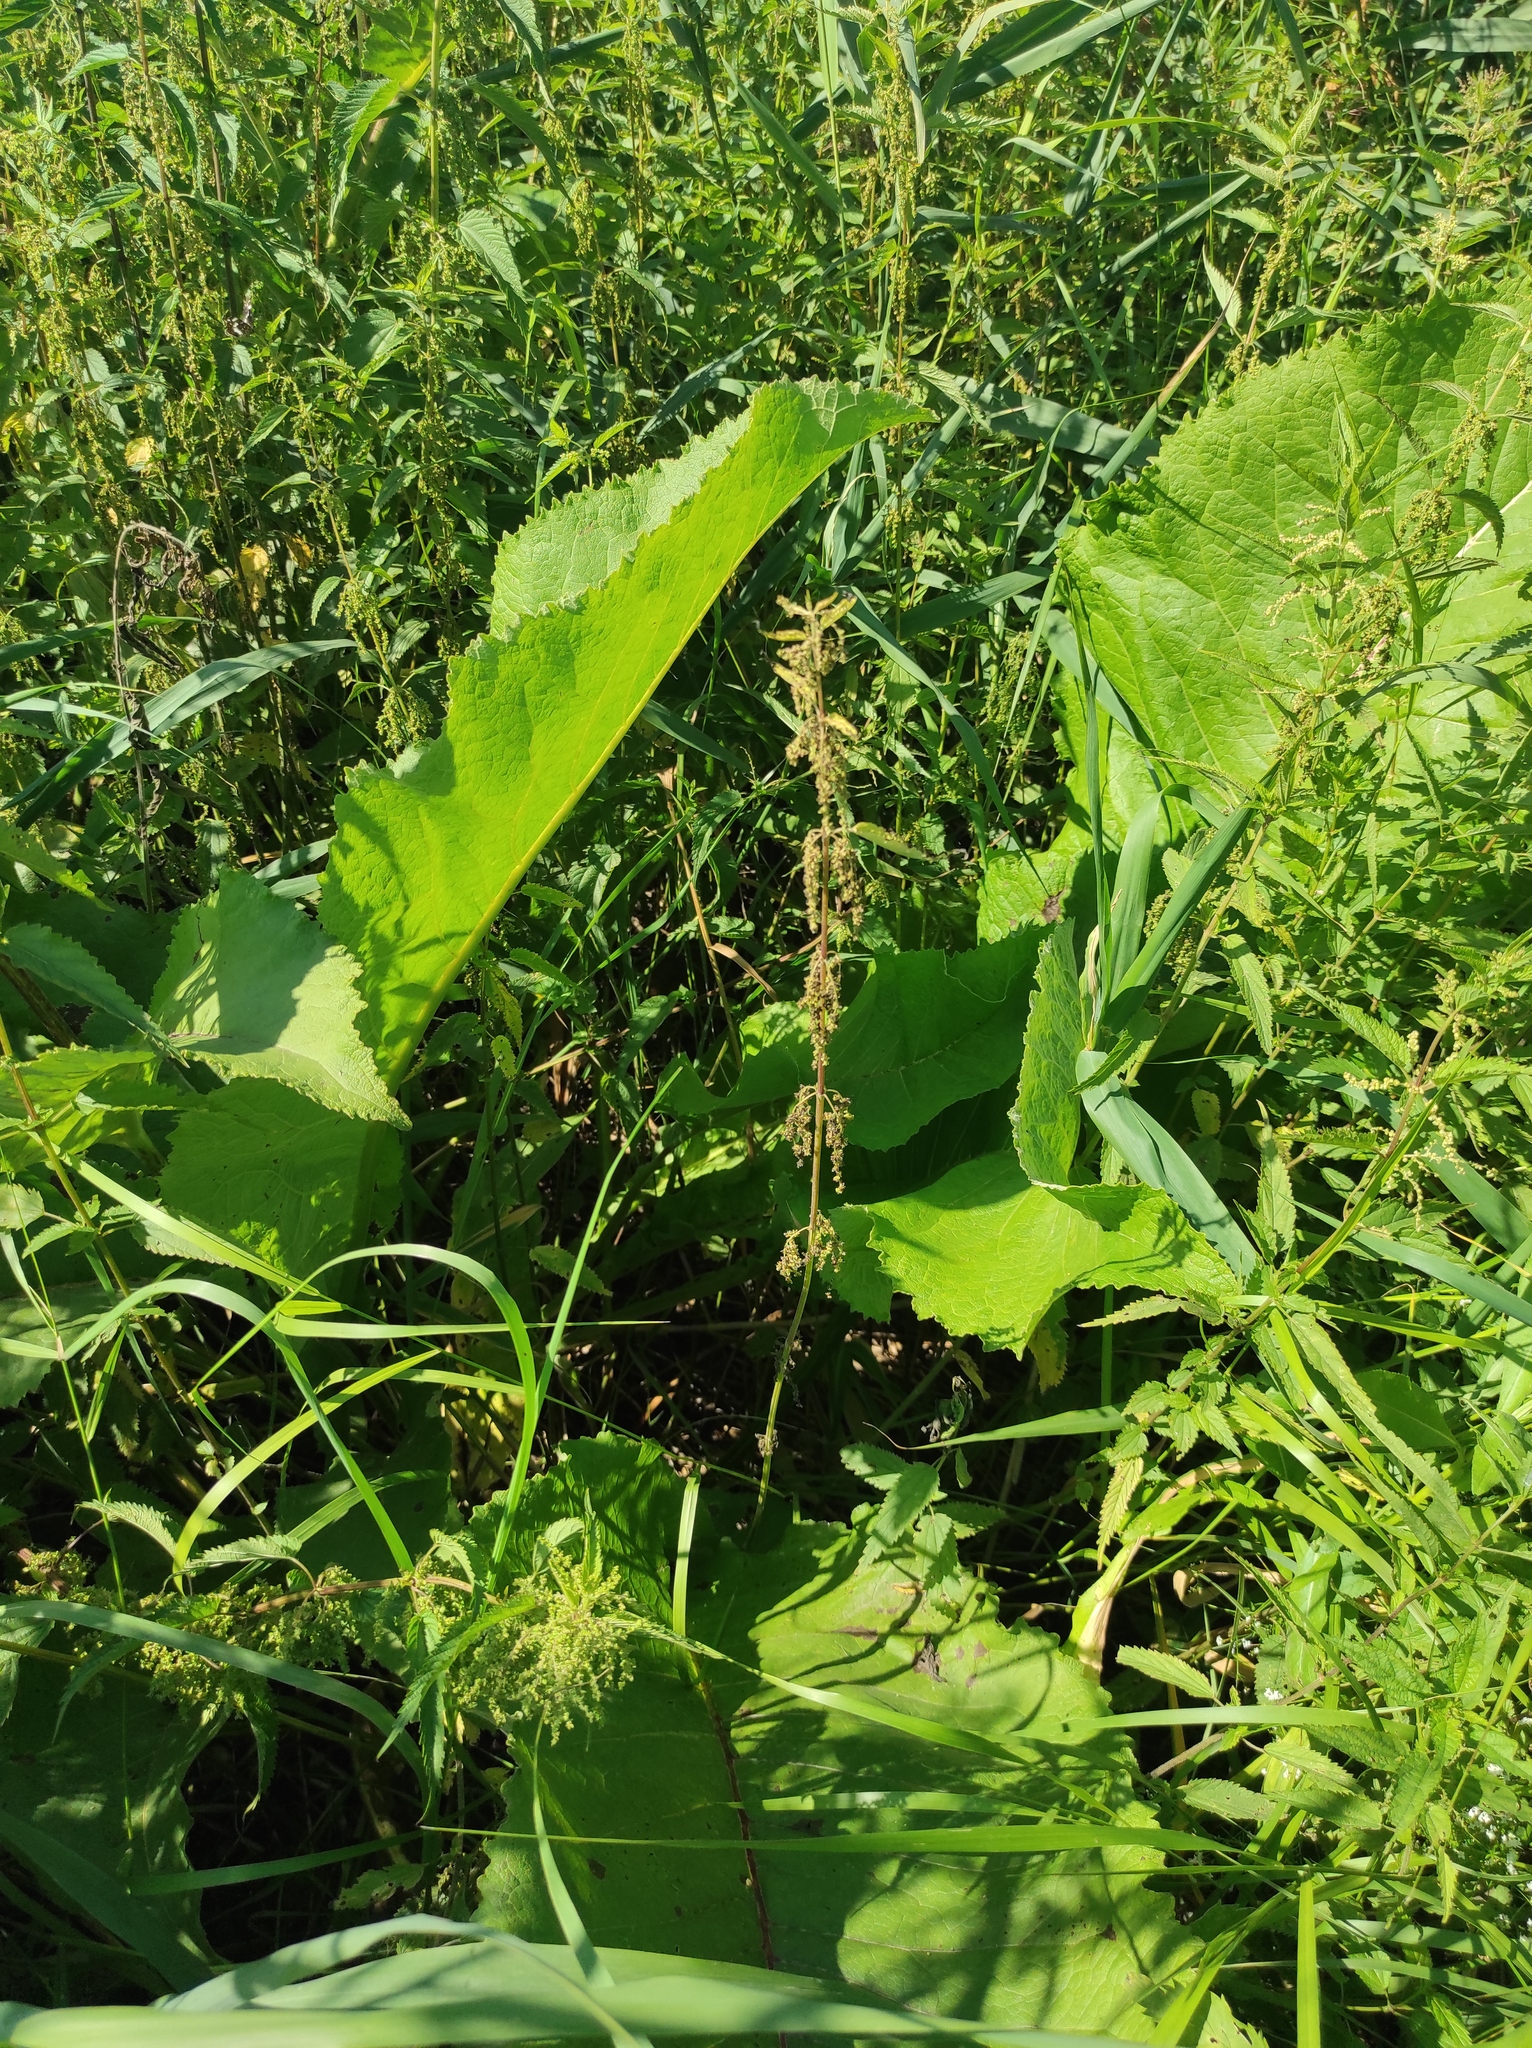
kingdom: Plantae
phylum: Tracheophyta
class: Magnoliopsida
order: Asterales
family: Asteraceae
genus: Inula
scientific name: Inula helenium
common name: Elecampane
